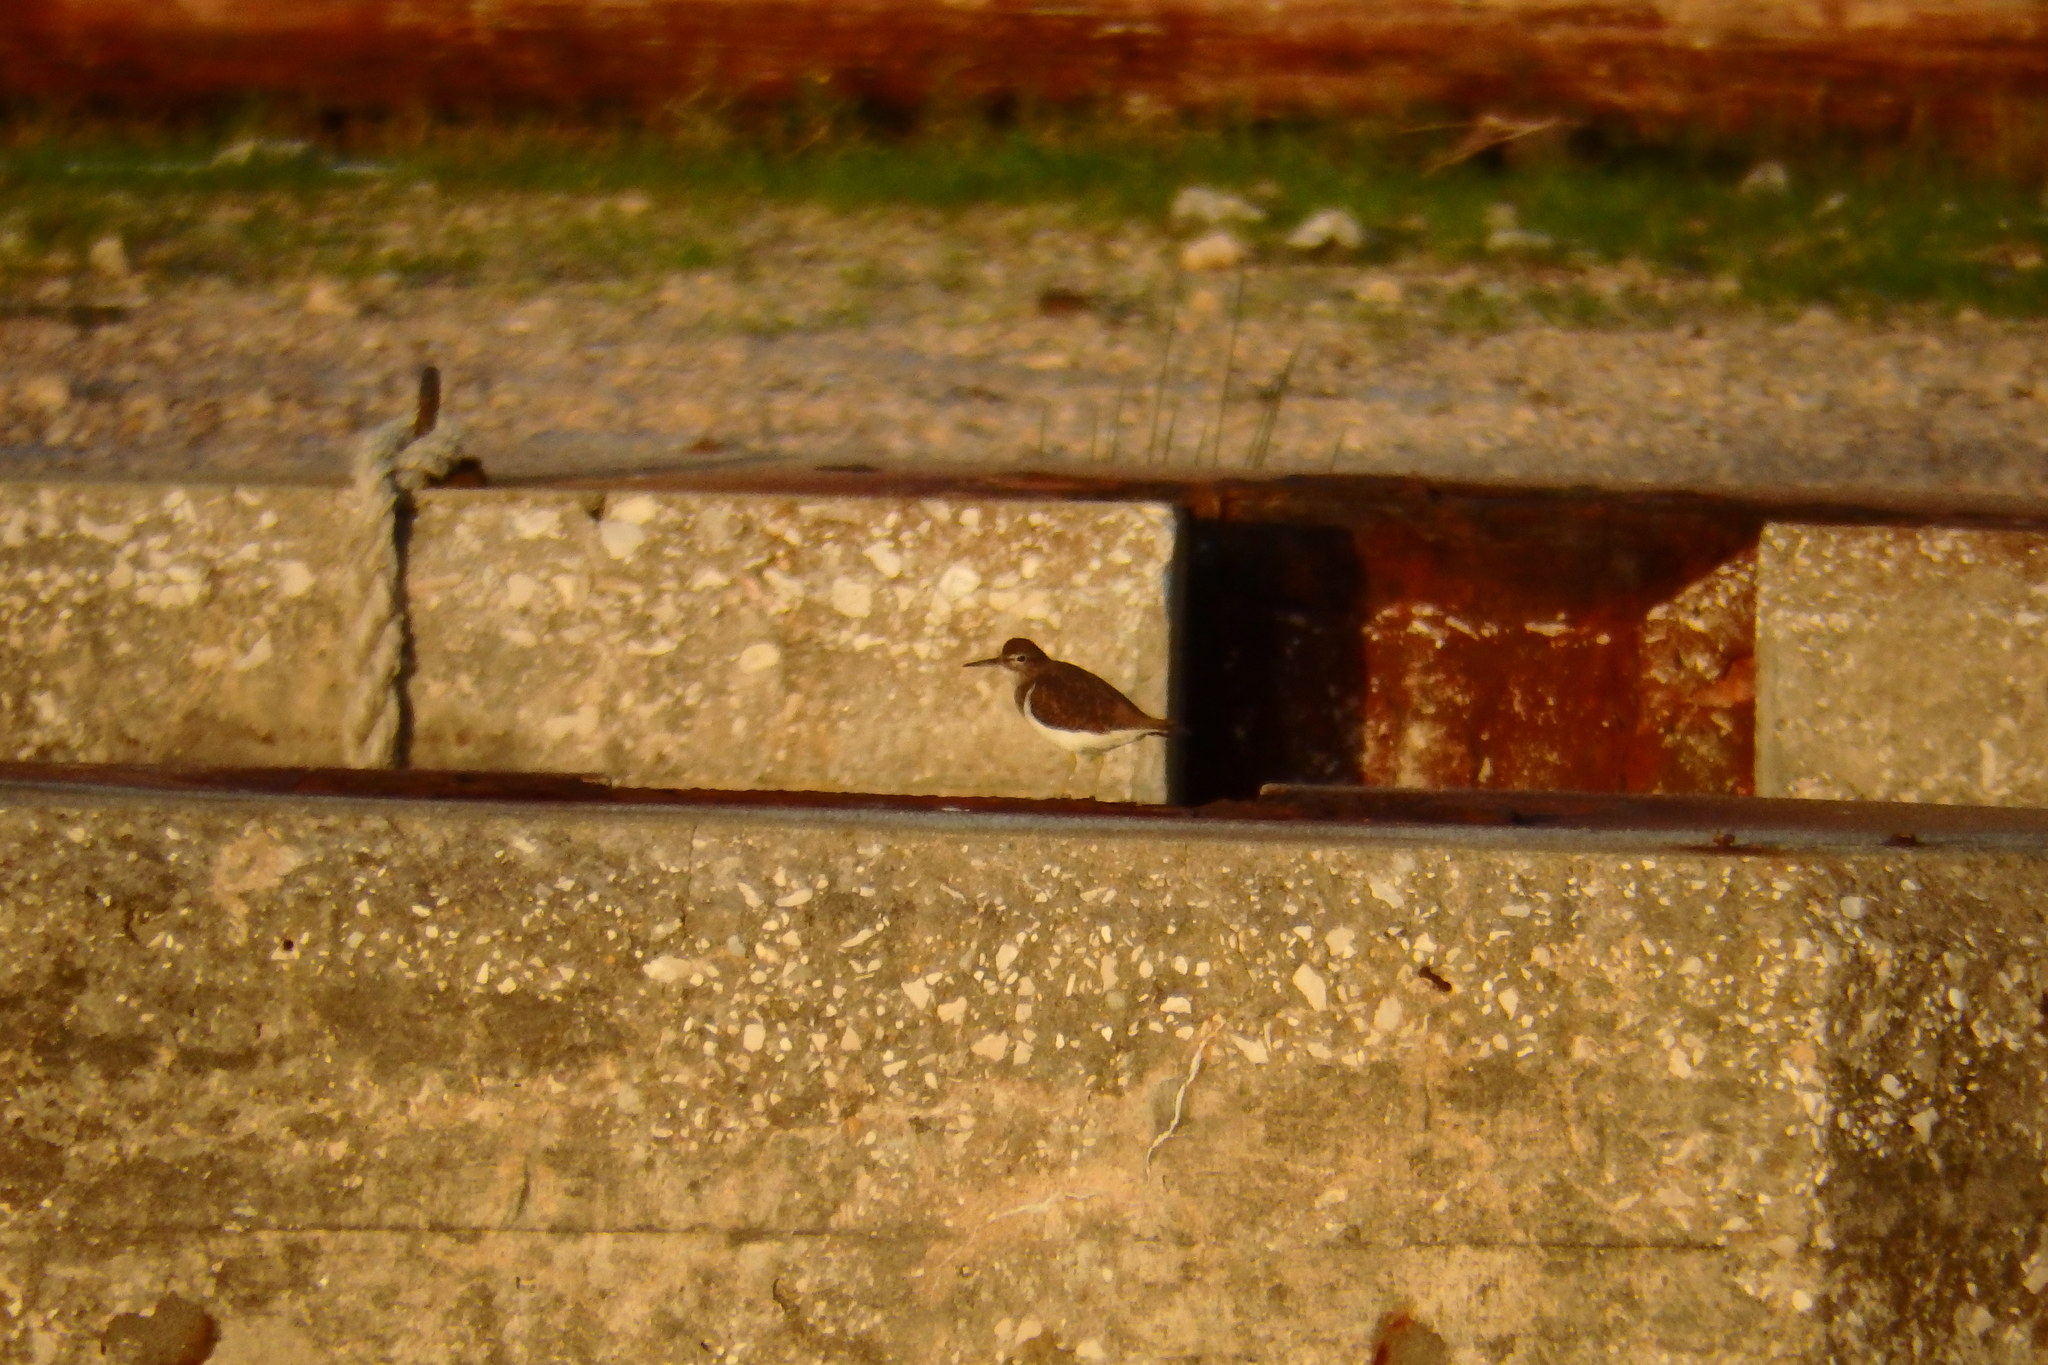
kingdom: Animalia
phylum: Chordata
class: Aves
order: Charadriiformes
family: Scolopacidae
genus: Actitis
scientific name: Actitis hypoleucos
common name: Common sandpiper
